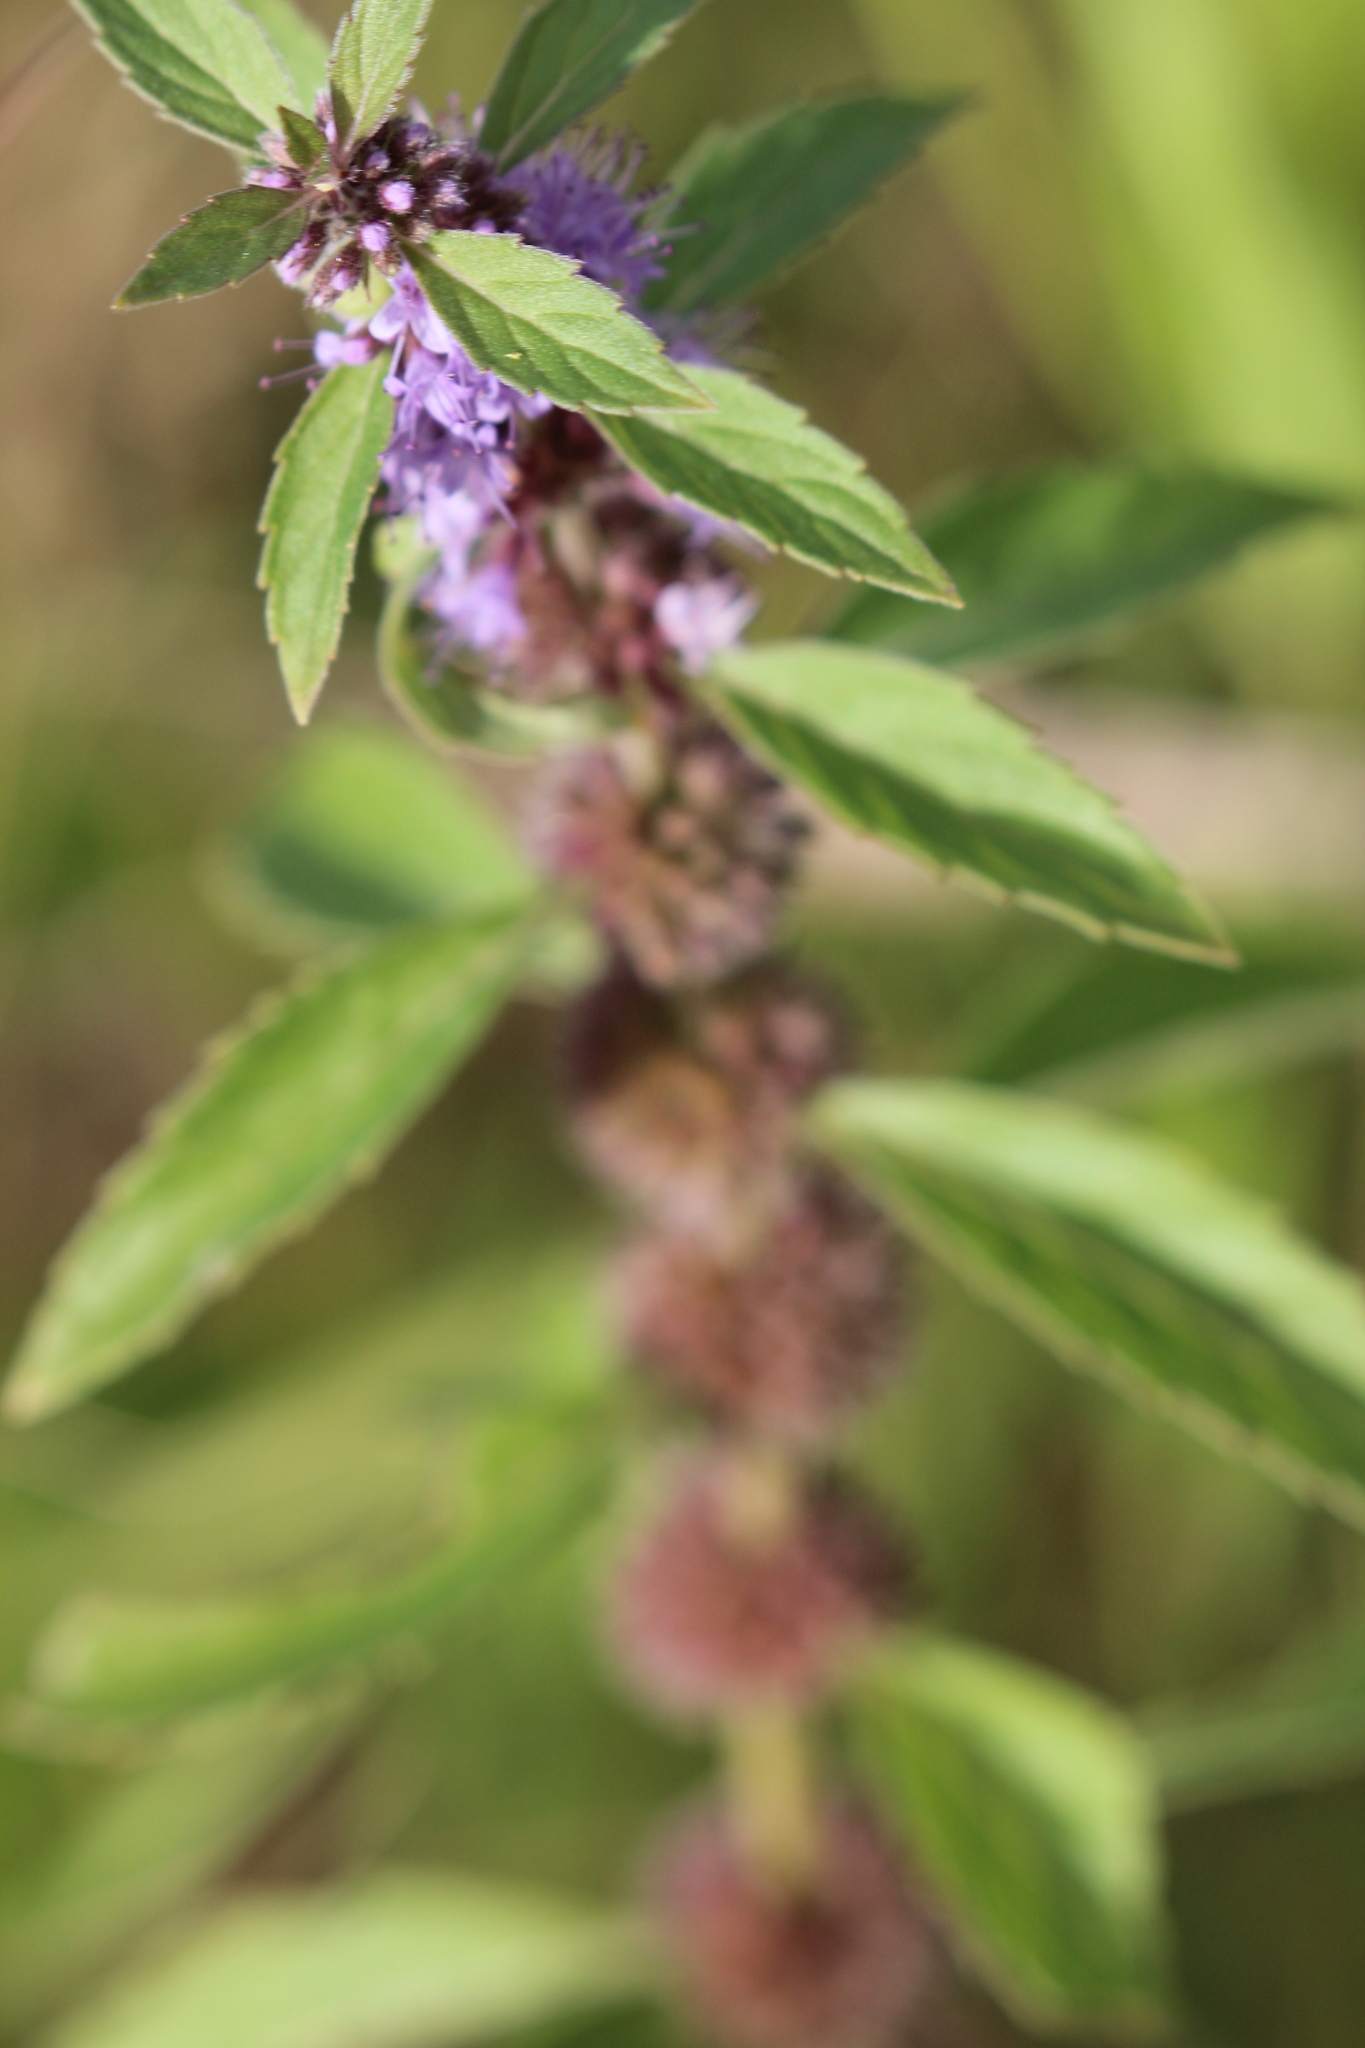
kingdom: Plantae
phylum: Tracheophyta
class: Magnoliopsida
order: Lamiales
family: Lamiaceae
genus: Mentha
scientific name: Mentha canadensis
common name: American corn mint
